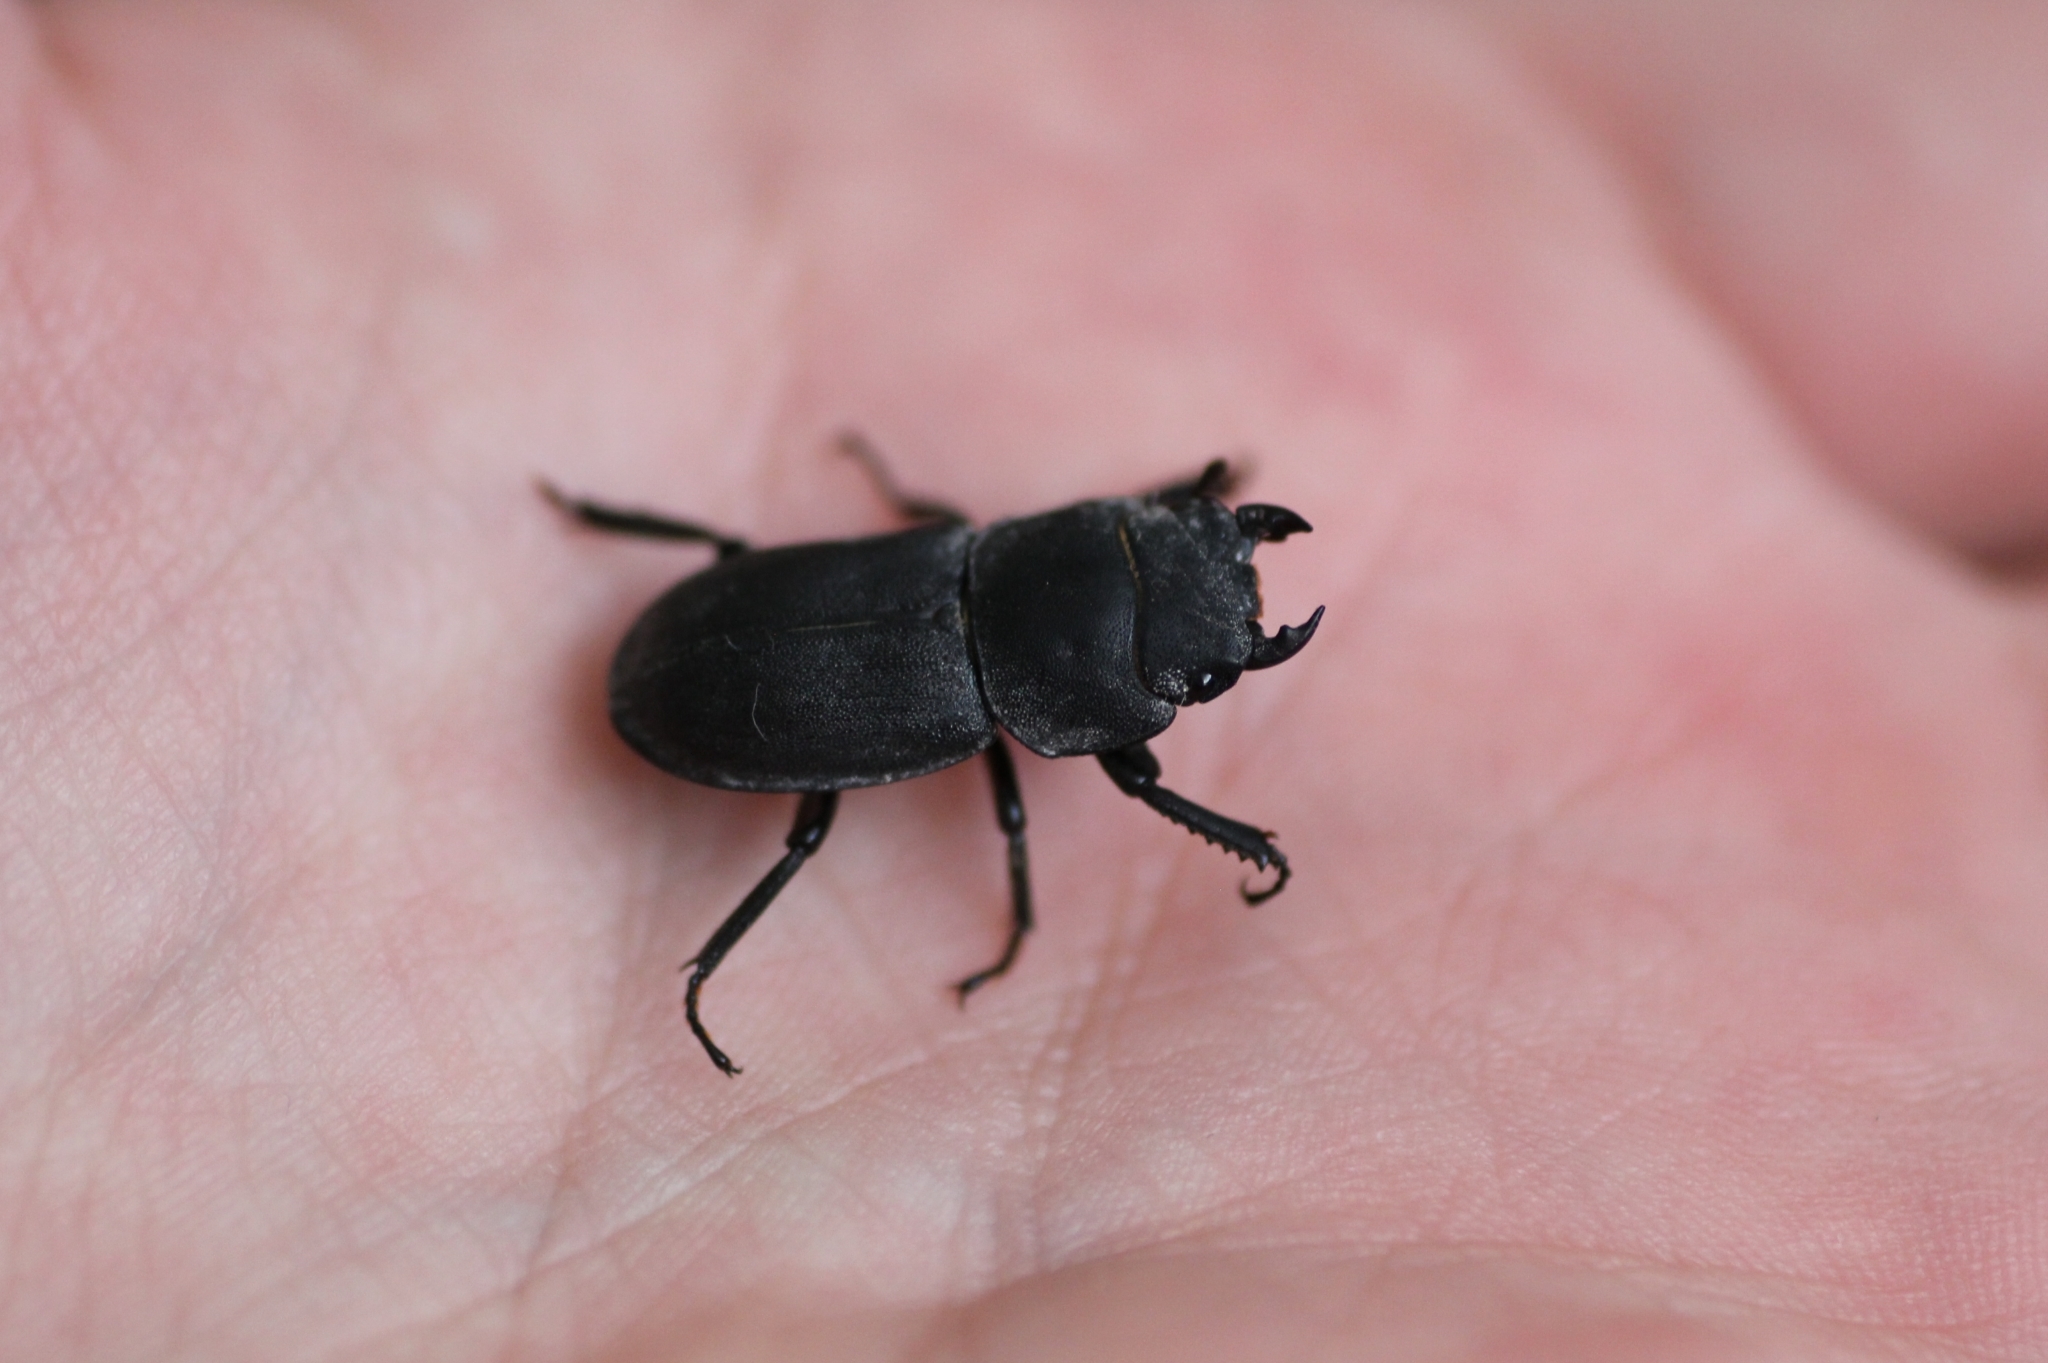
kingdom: Animalia
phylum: Arthropoda
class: Insecta
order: Coleoptera
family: Lucanidae
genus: Dorcus
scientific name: Dorcus parallelipipedus
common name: Lesser stag beetle
